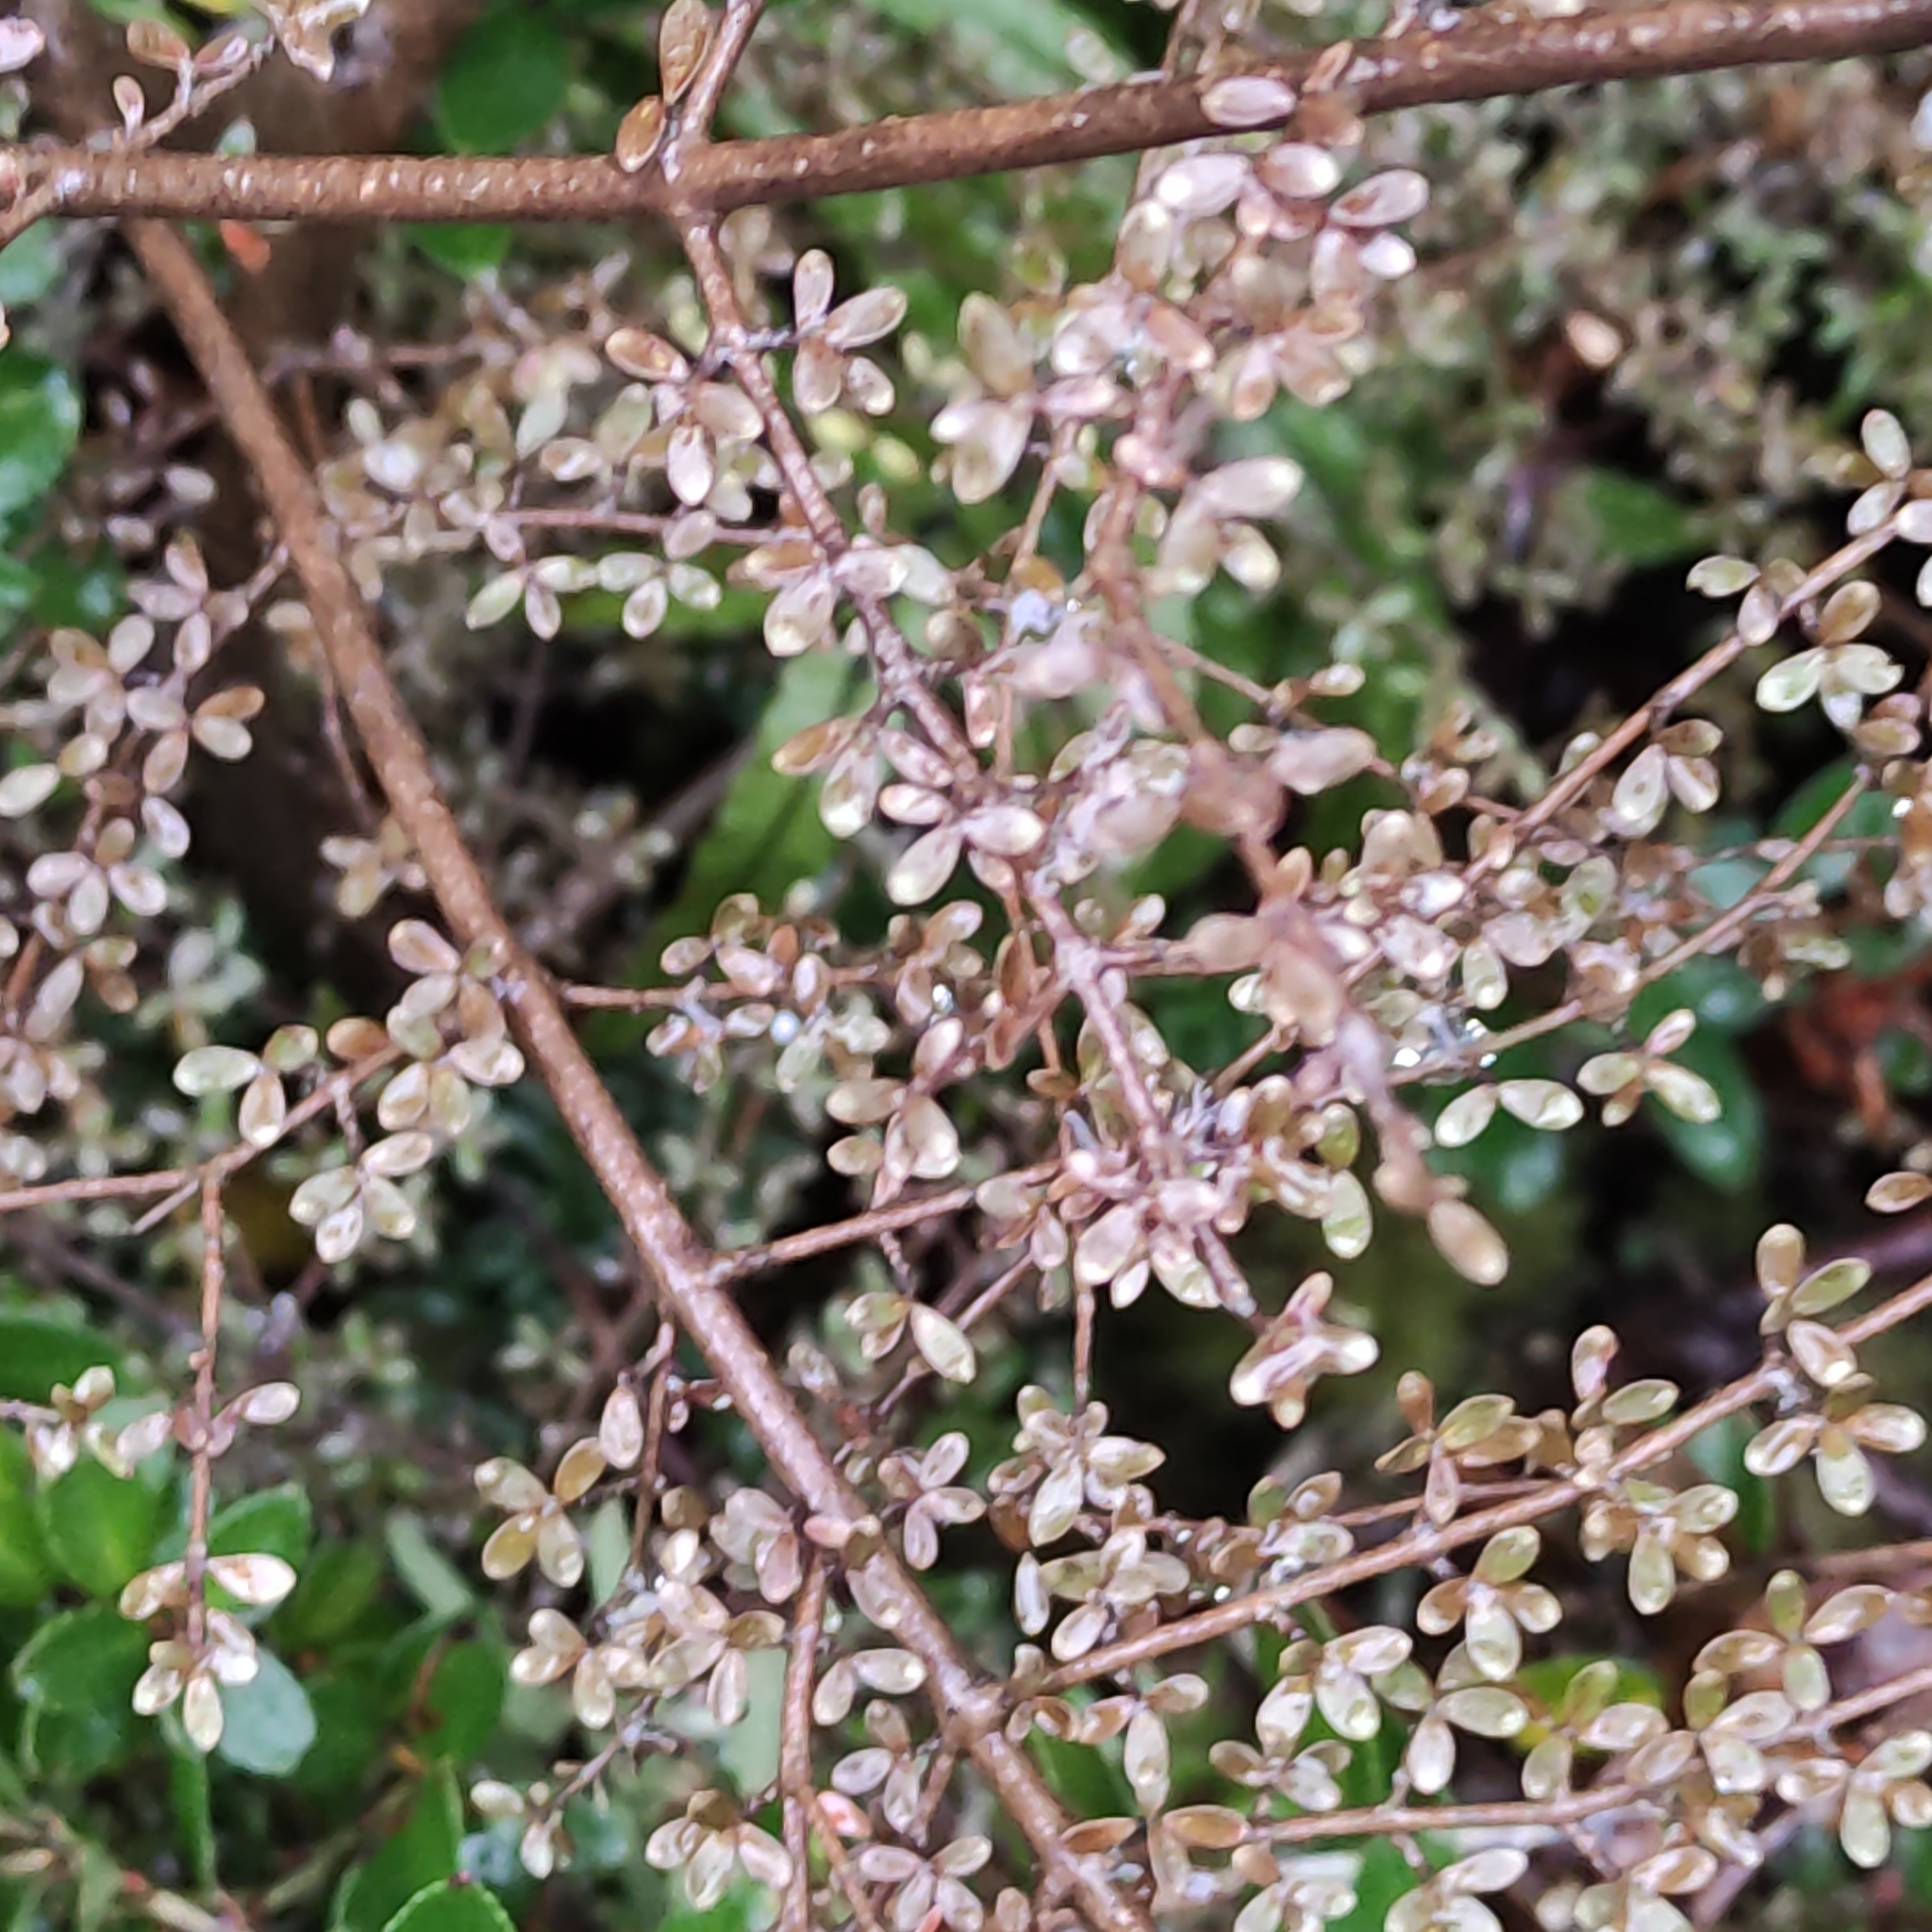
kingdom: Plantae
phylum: Tracheophyta
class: Magnoliopsida
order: Gentianales
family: Rubiaceae
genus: Coprosma
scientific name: Coprosma dumosa
